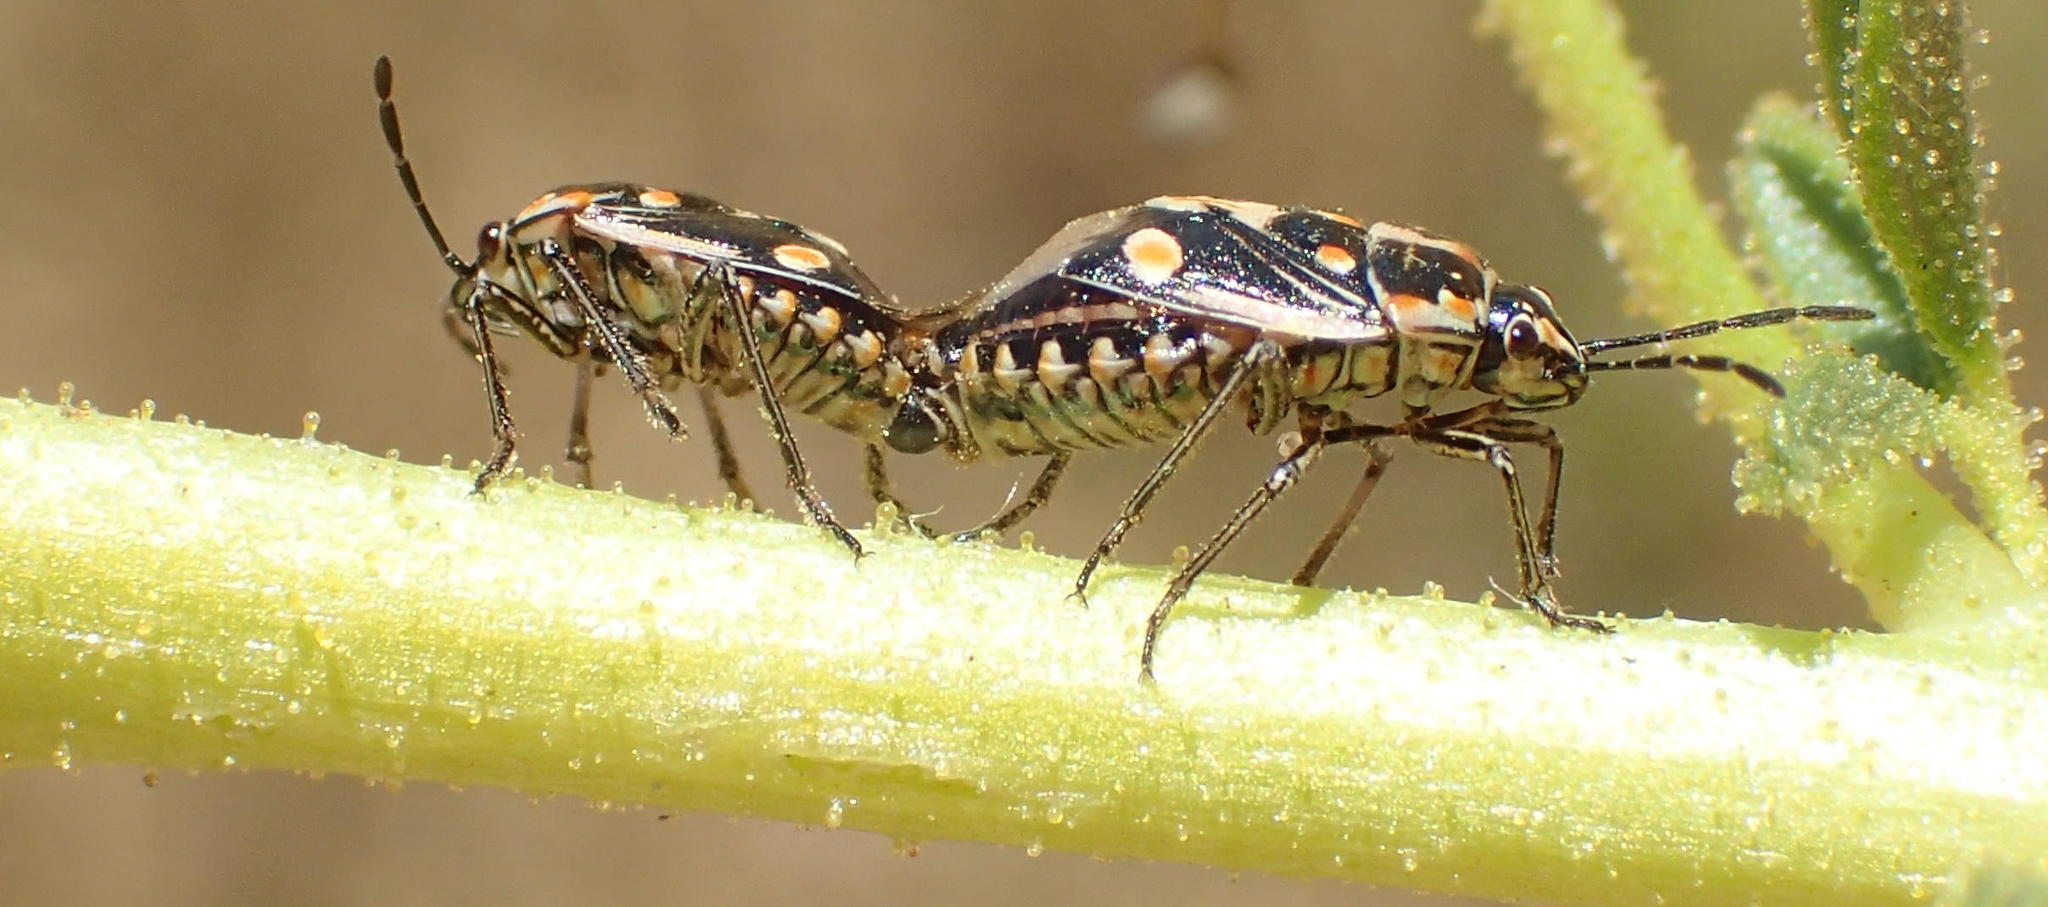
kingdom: Animalia
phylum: Arthropoda
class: Insecta
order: Hemiptera
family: Pentatomidae
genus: Bagrada
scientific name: Bagrada hilaris
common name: Bagrada bug
